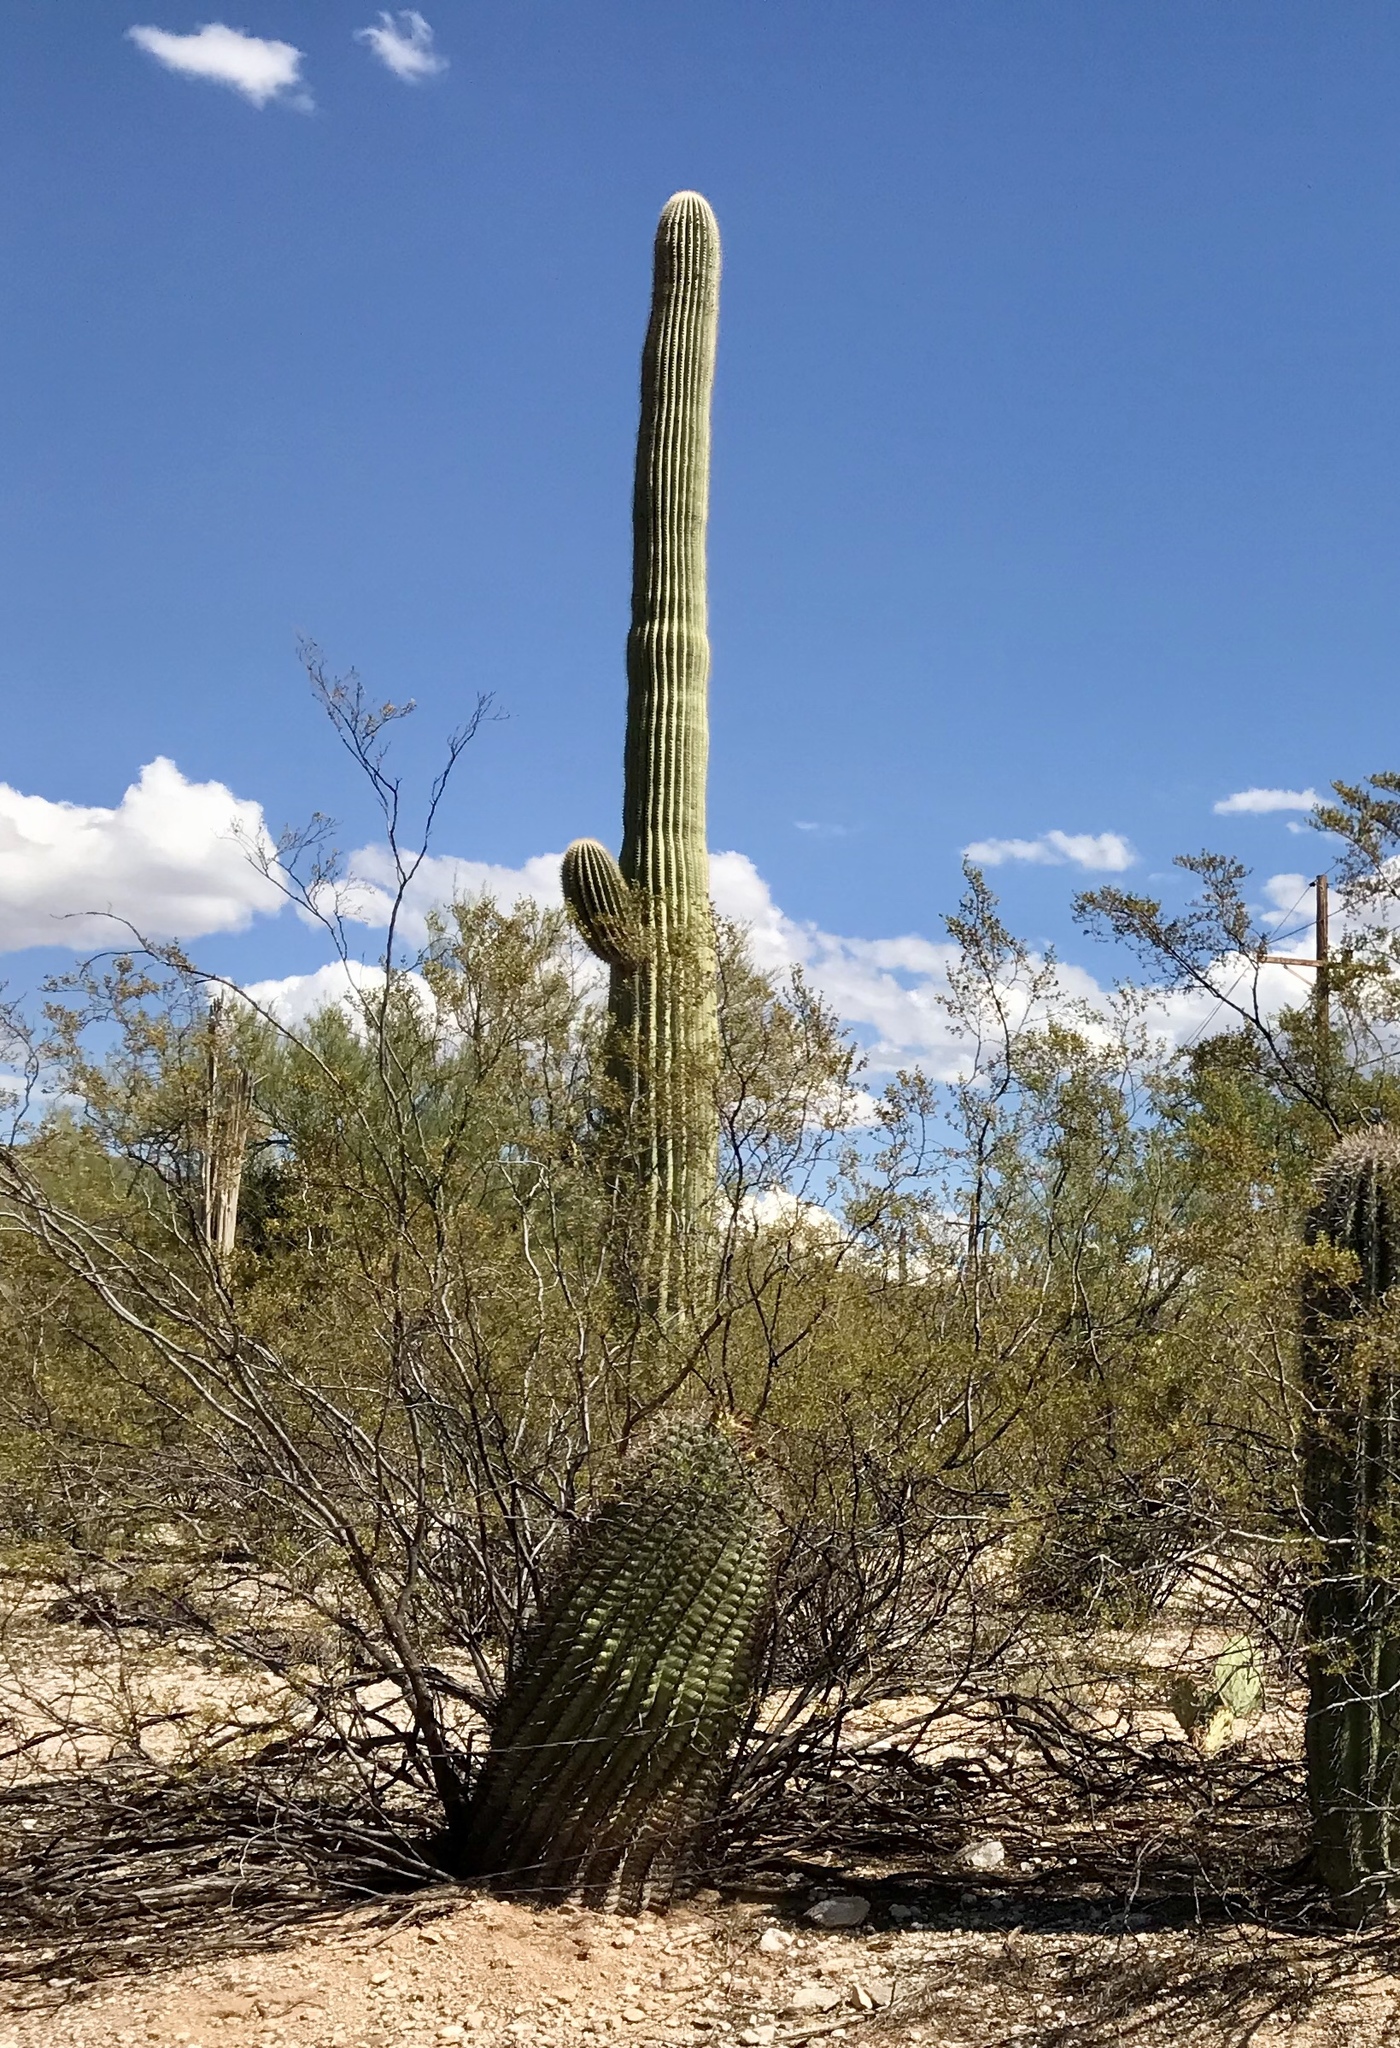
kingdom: Plantae
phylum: Tracheophyta
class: Magnoliopsida
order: Caryophyllales
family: Cactaceae
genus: Carnegiea
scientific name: Carnegiea gigantea
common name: Saguaro
